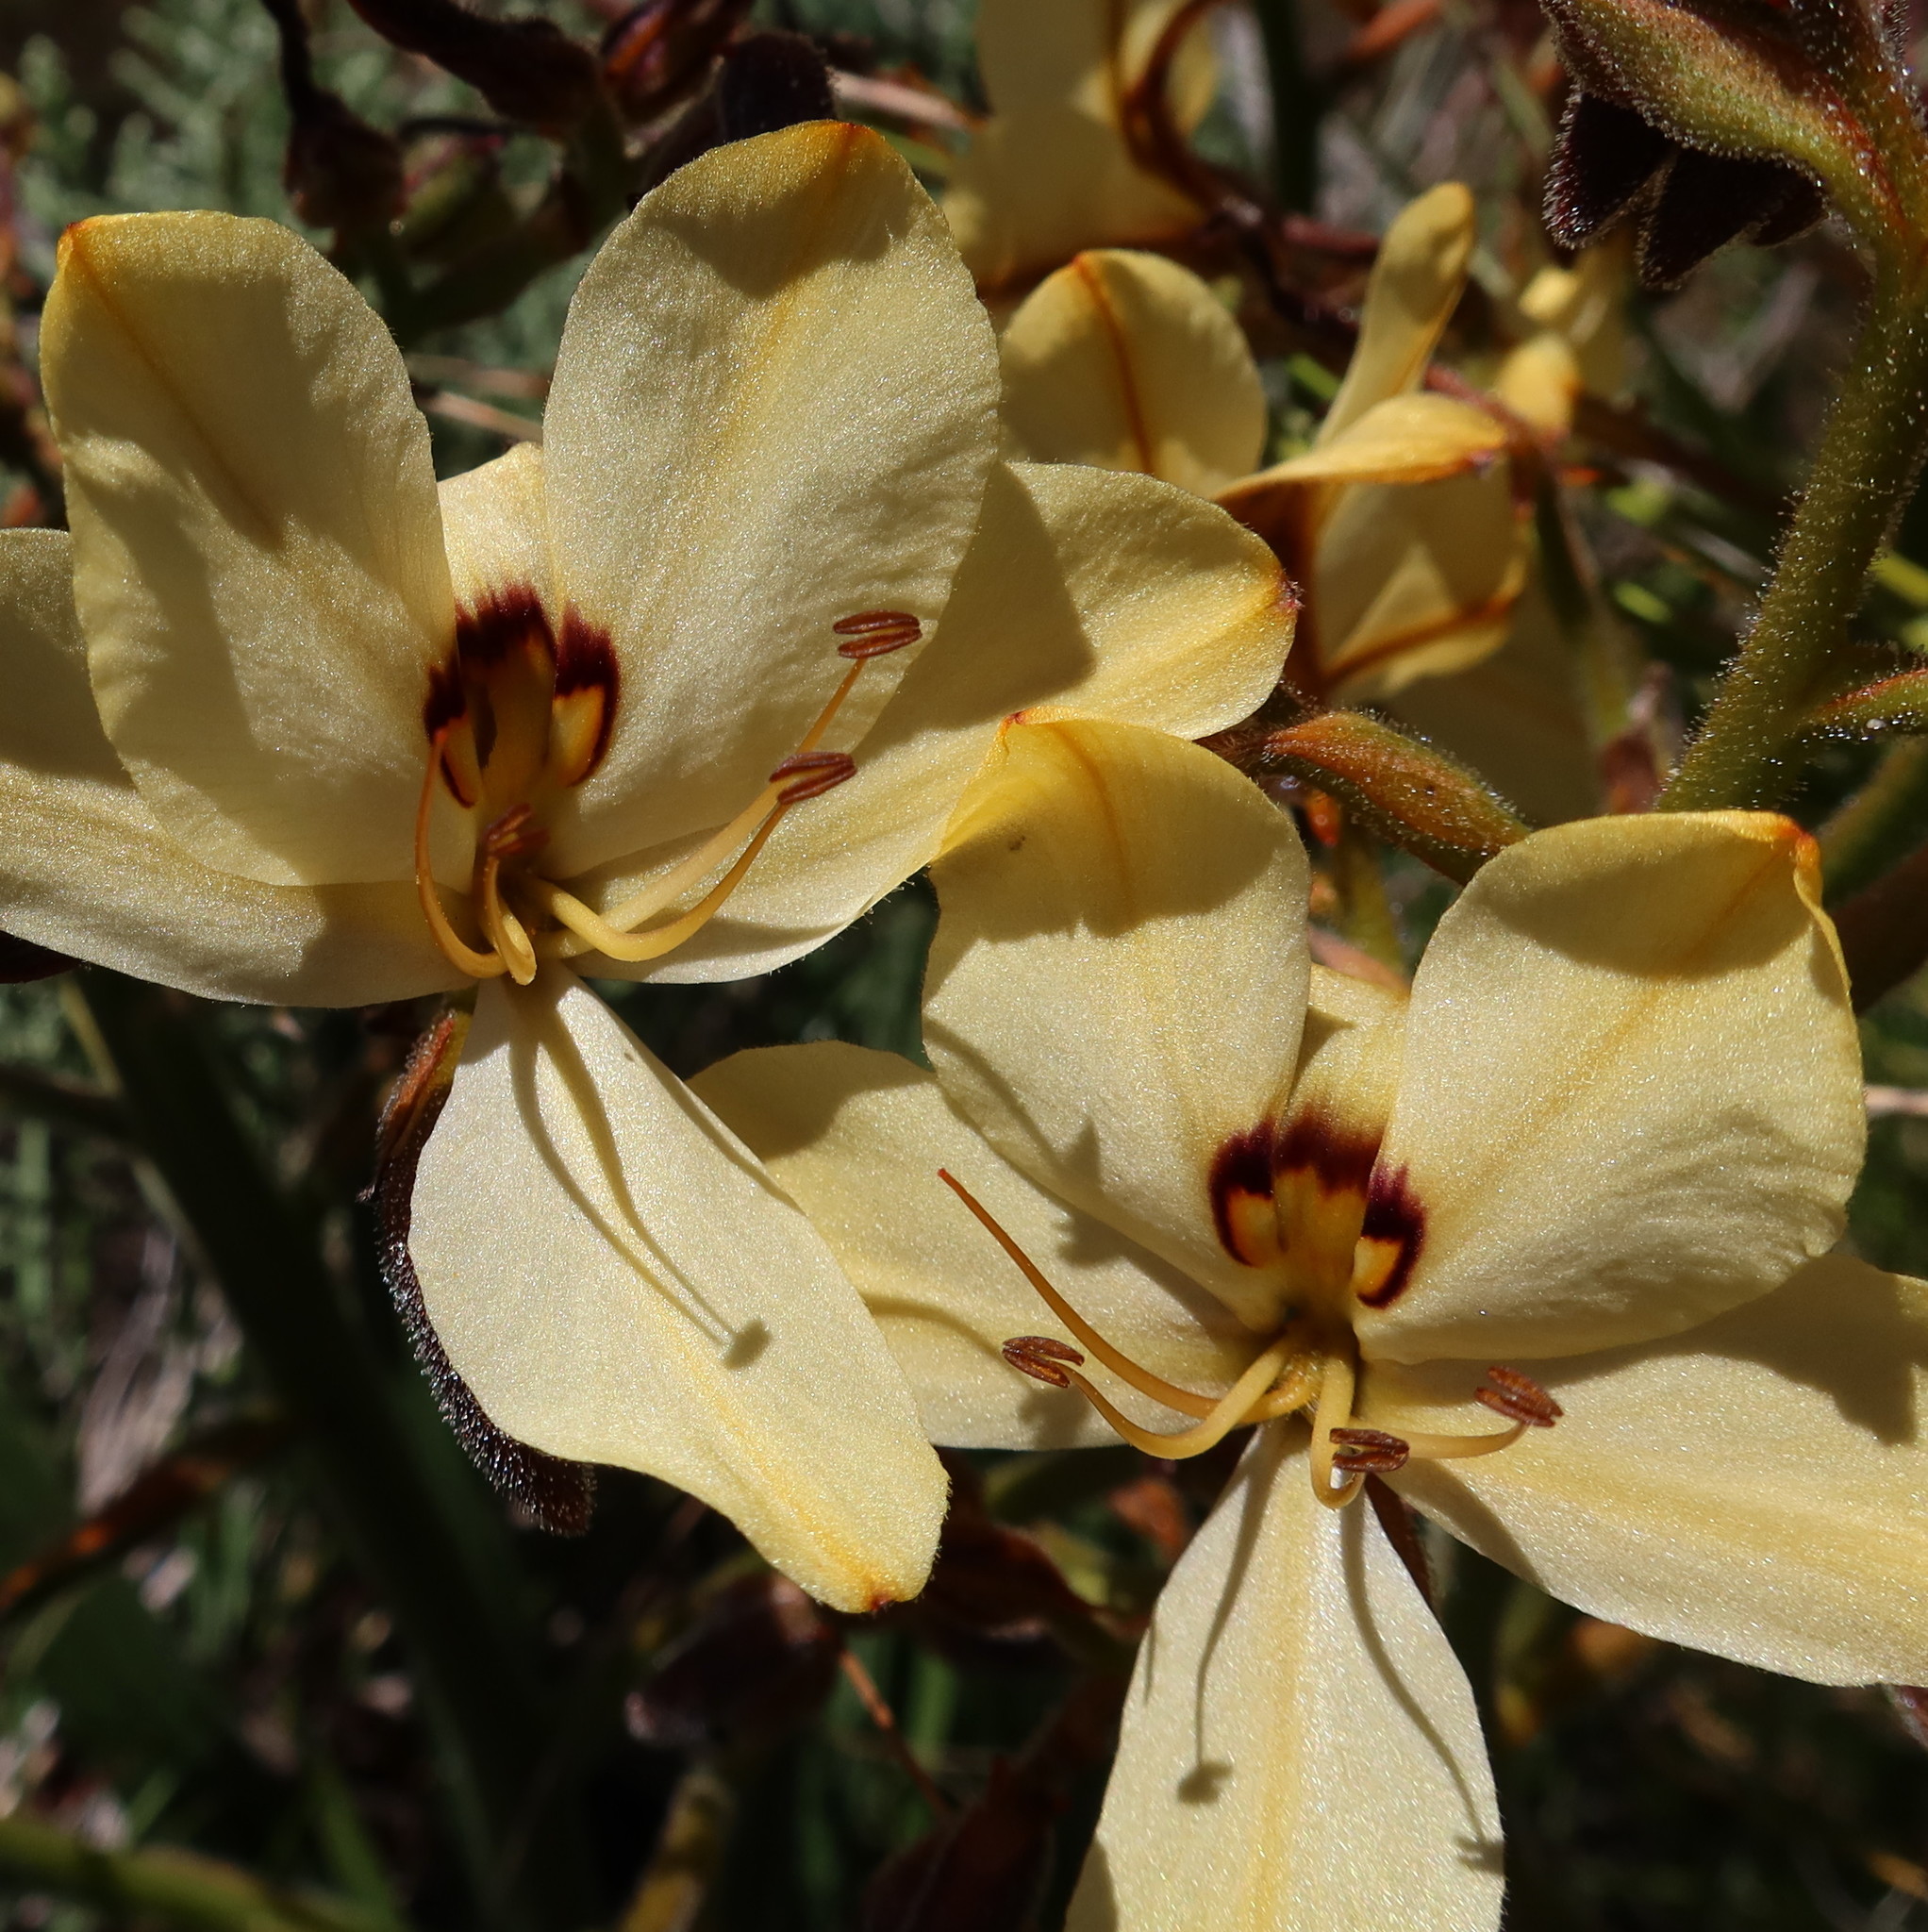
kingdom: Plantae
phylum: Tracheophyta
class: Liliopsida
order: Commelinales
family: Haemodoraceae
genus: Wachendorfia
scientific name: Wachendorfia paniculata
